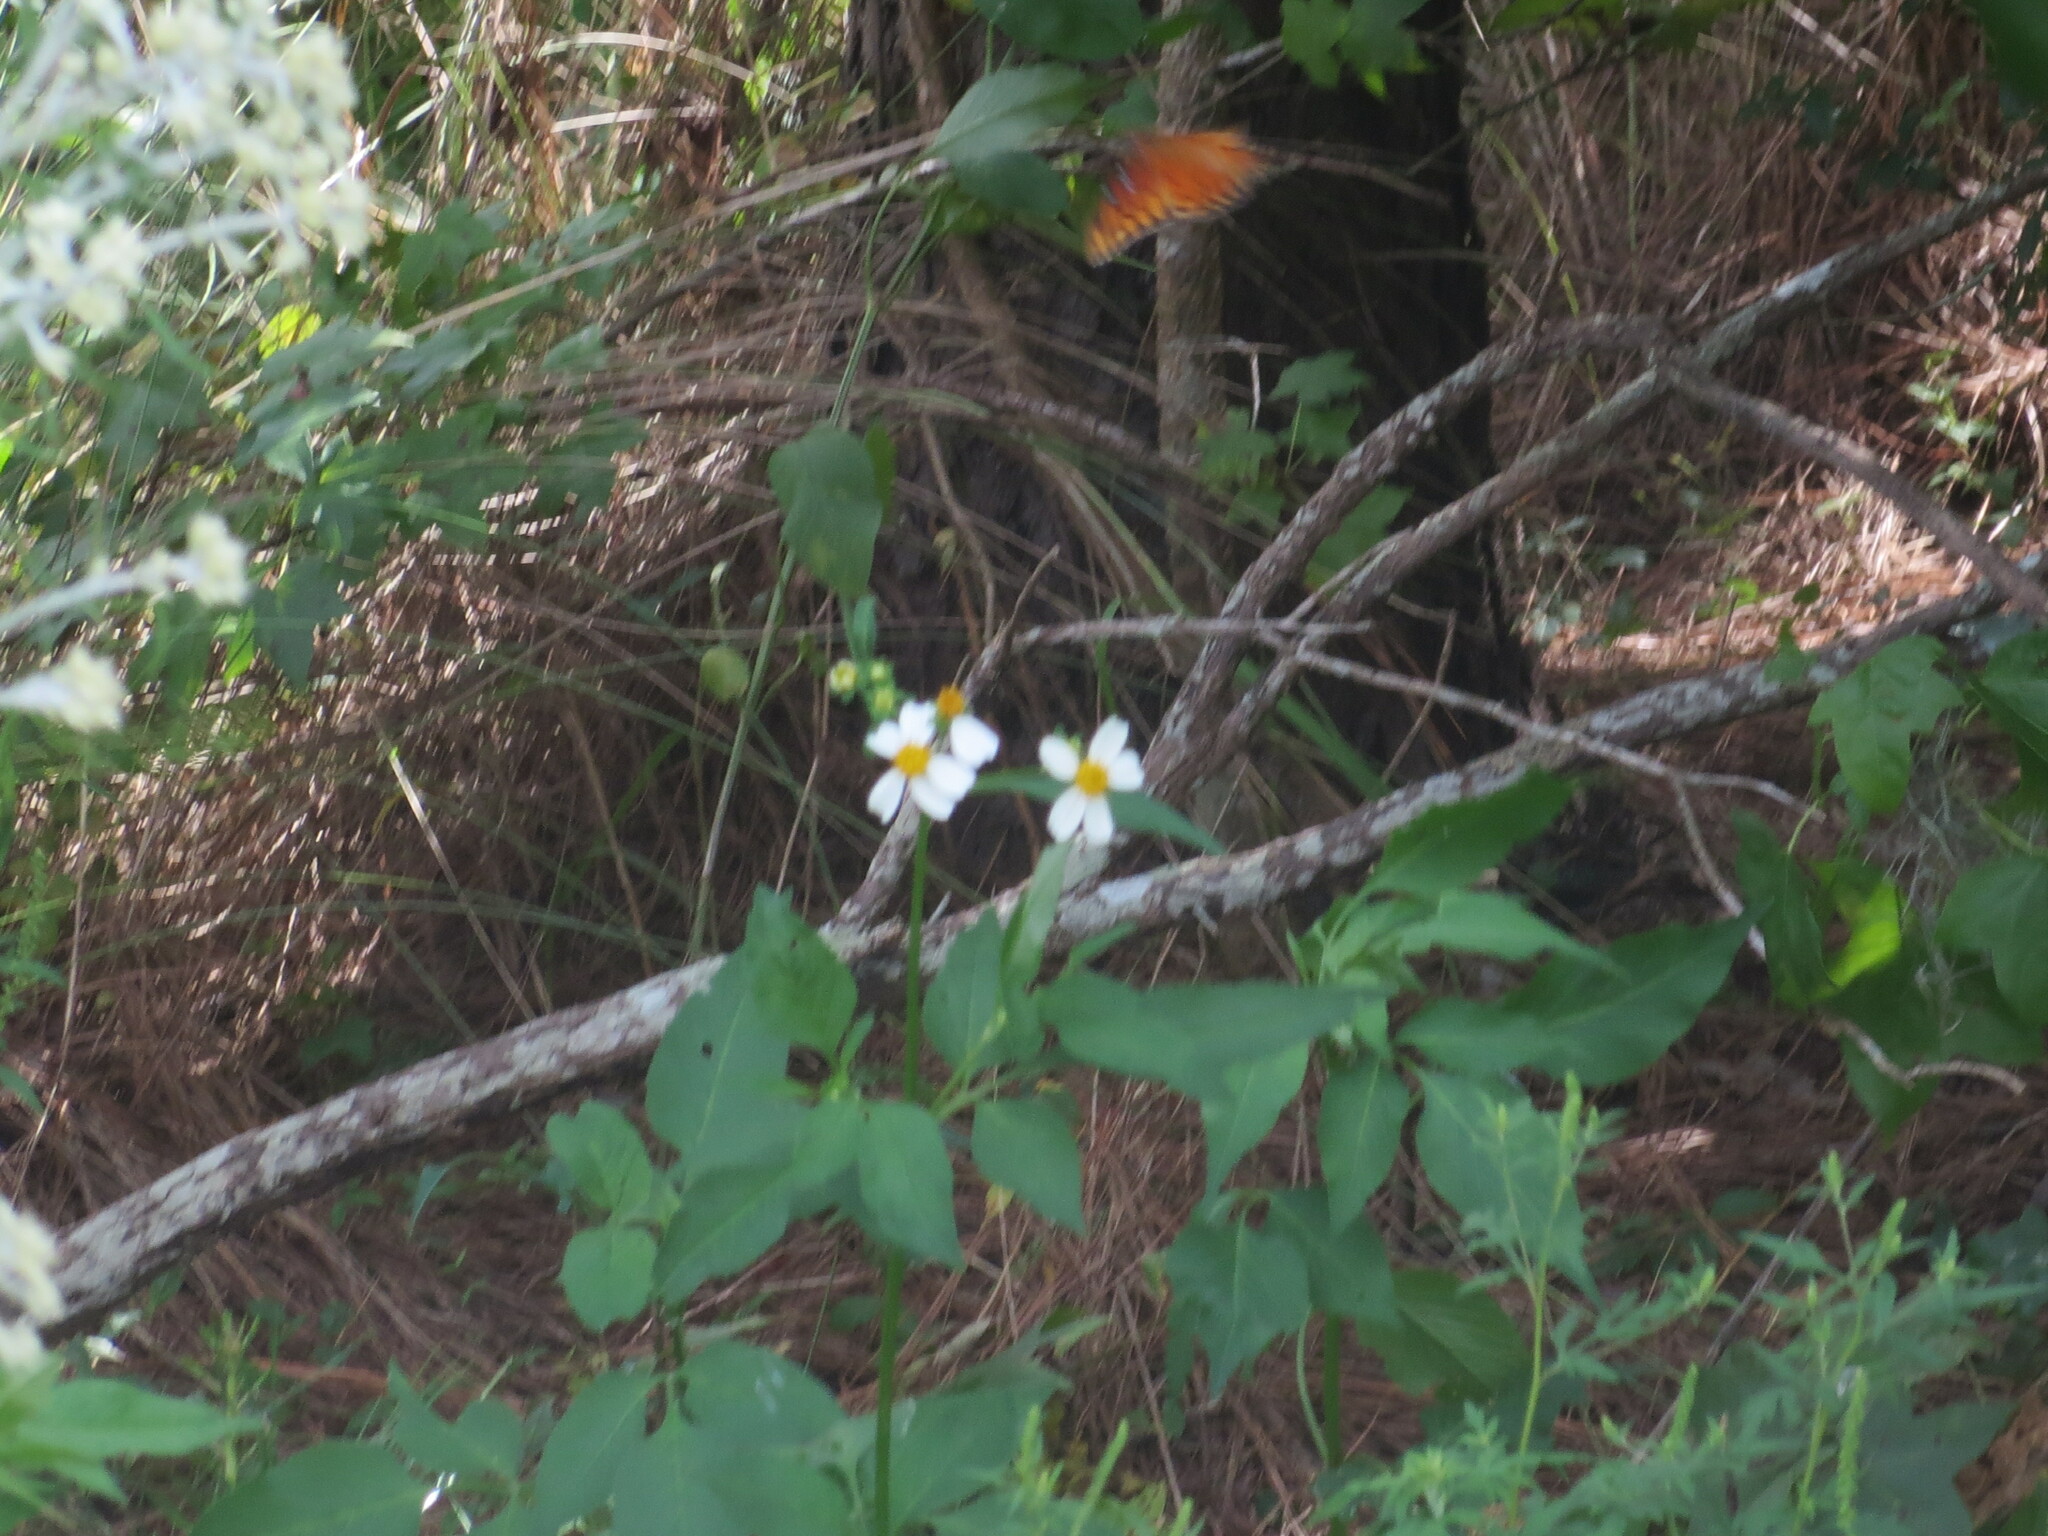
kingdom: Plantae
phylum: Tracheophyta
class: Magnoliopsida
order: Asterales
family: Asteraceae
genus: Bidens
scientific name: Bidens alba
